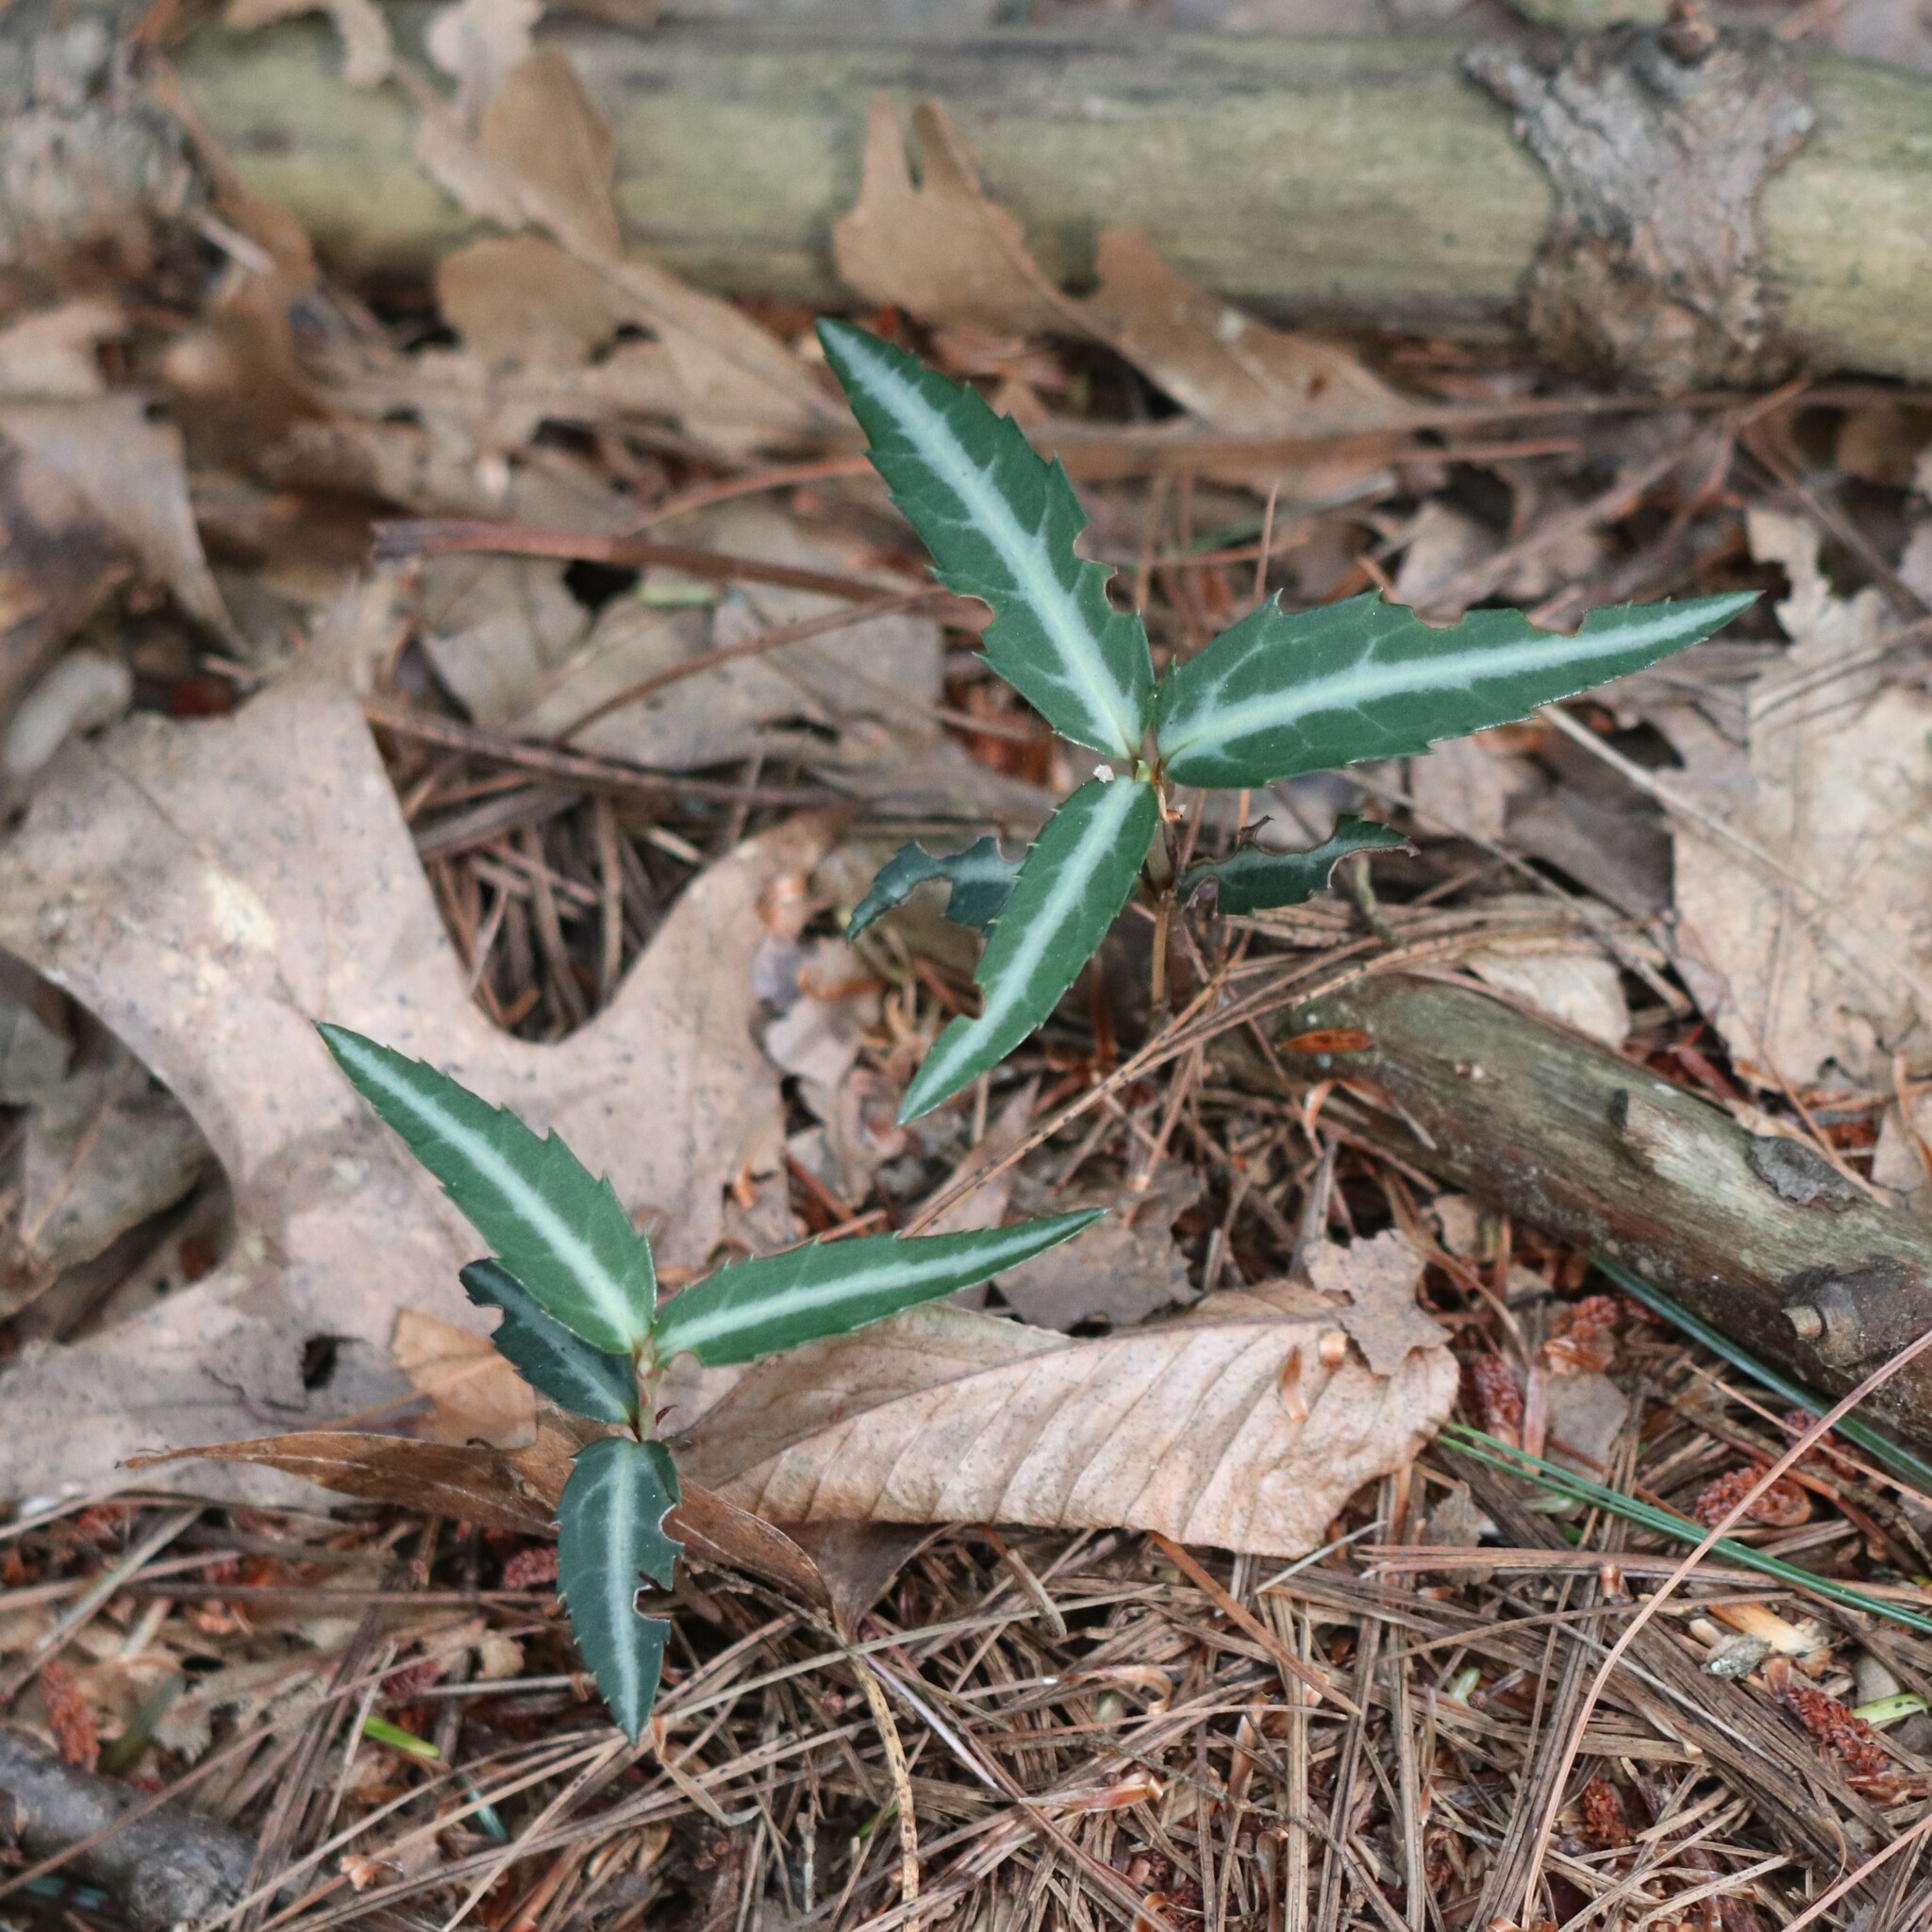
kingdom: Plantae
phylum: Tracheophyta
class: Magnoliopsida
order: Ericales
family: Ericaceae
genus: Chimaphila
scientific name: Chimaphila maculata
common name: Spotted pipsissewa
